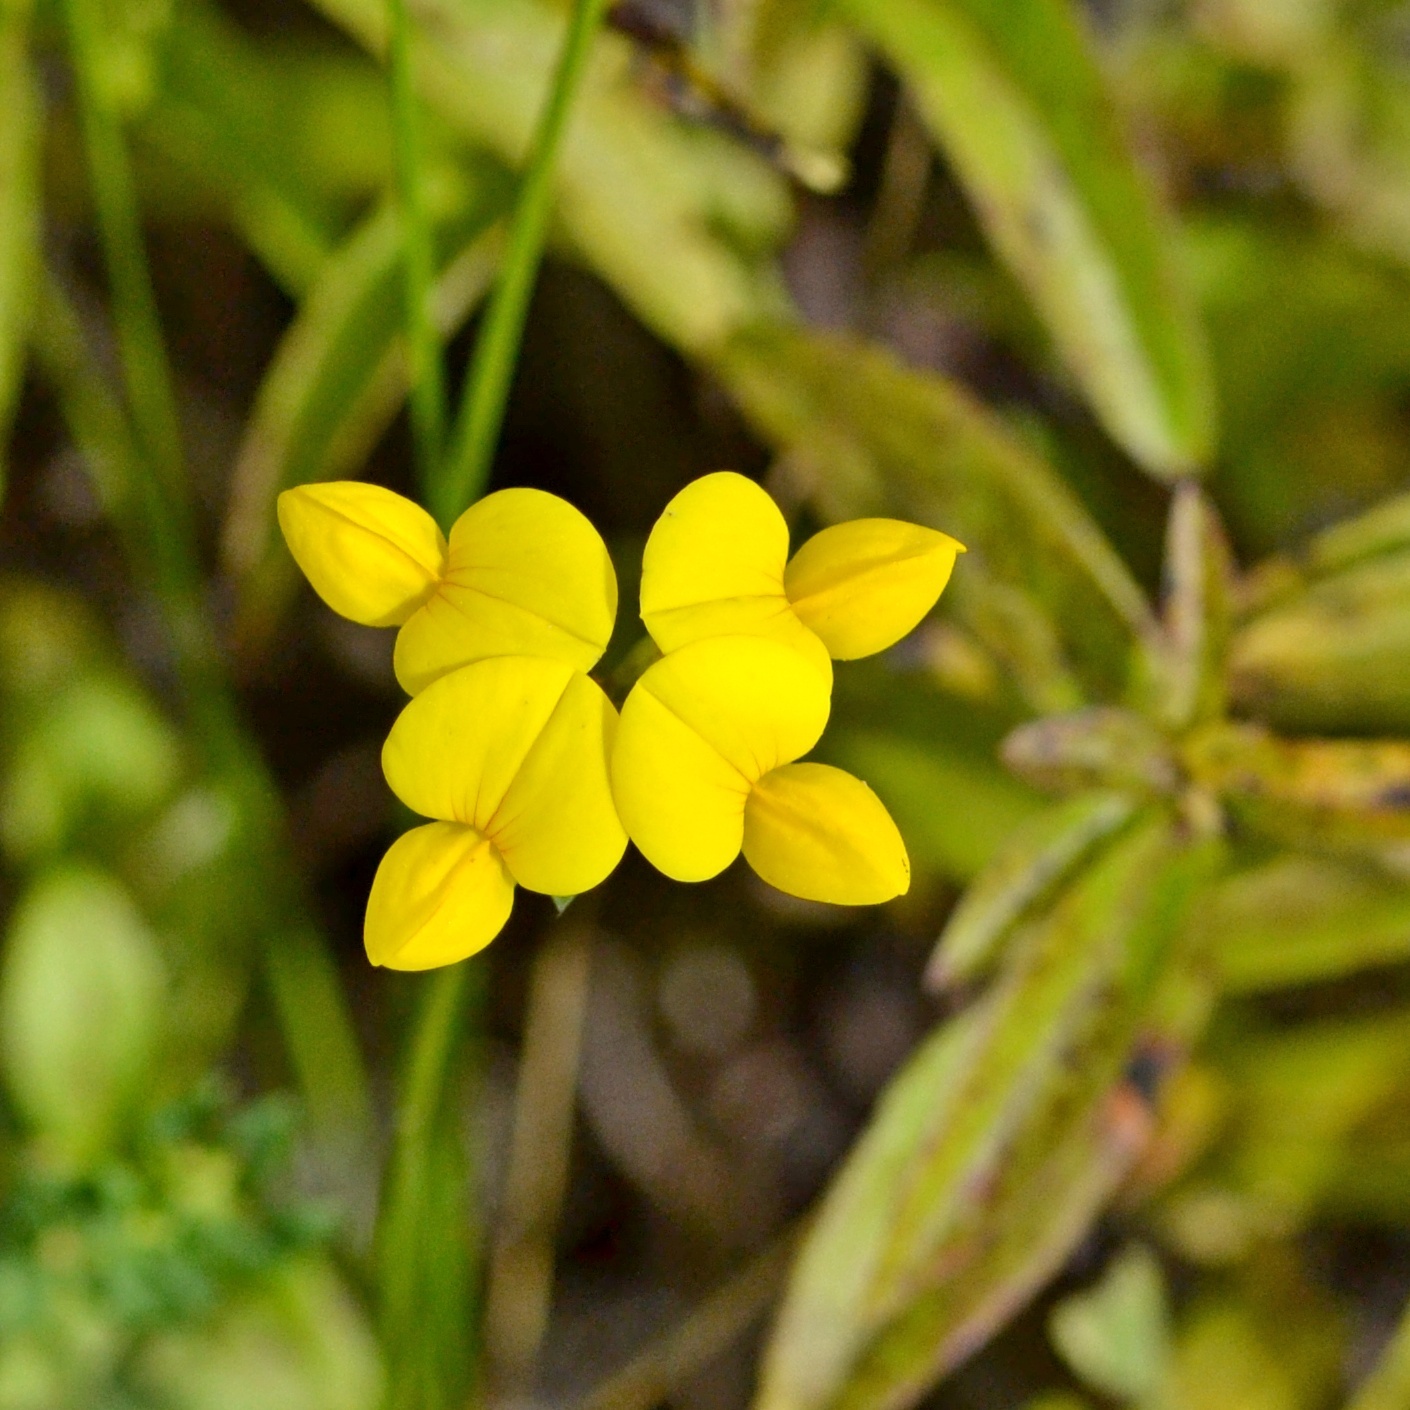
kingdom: Plantae
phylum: Tracheophyta
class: Magnoliopsida
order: Fabales
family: Fabaceae
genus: Lotus
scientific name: Lotus corniculatus
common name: Common bird's-foot-trefoil
